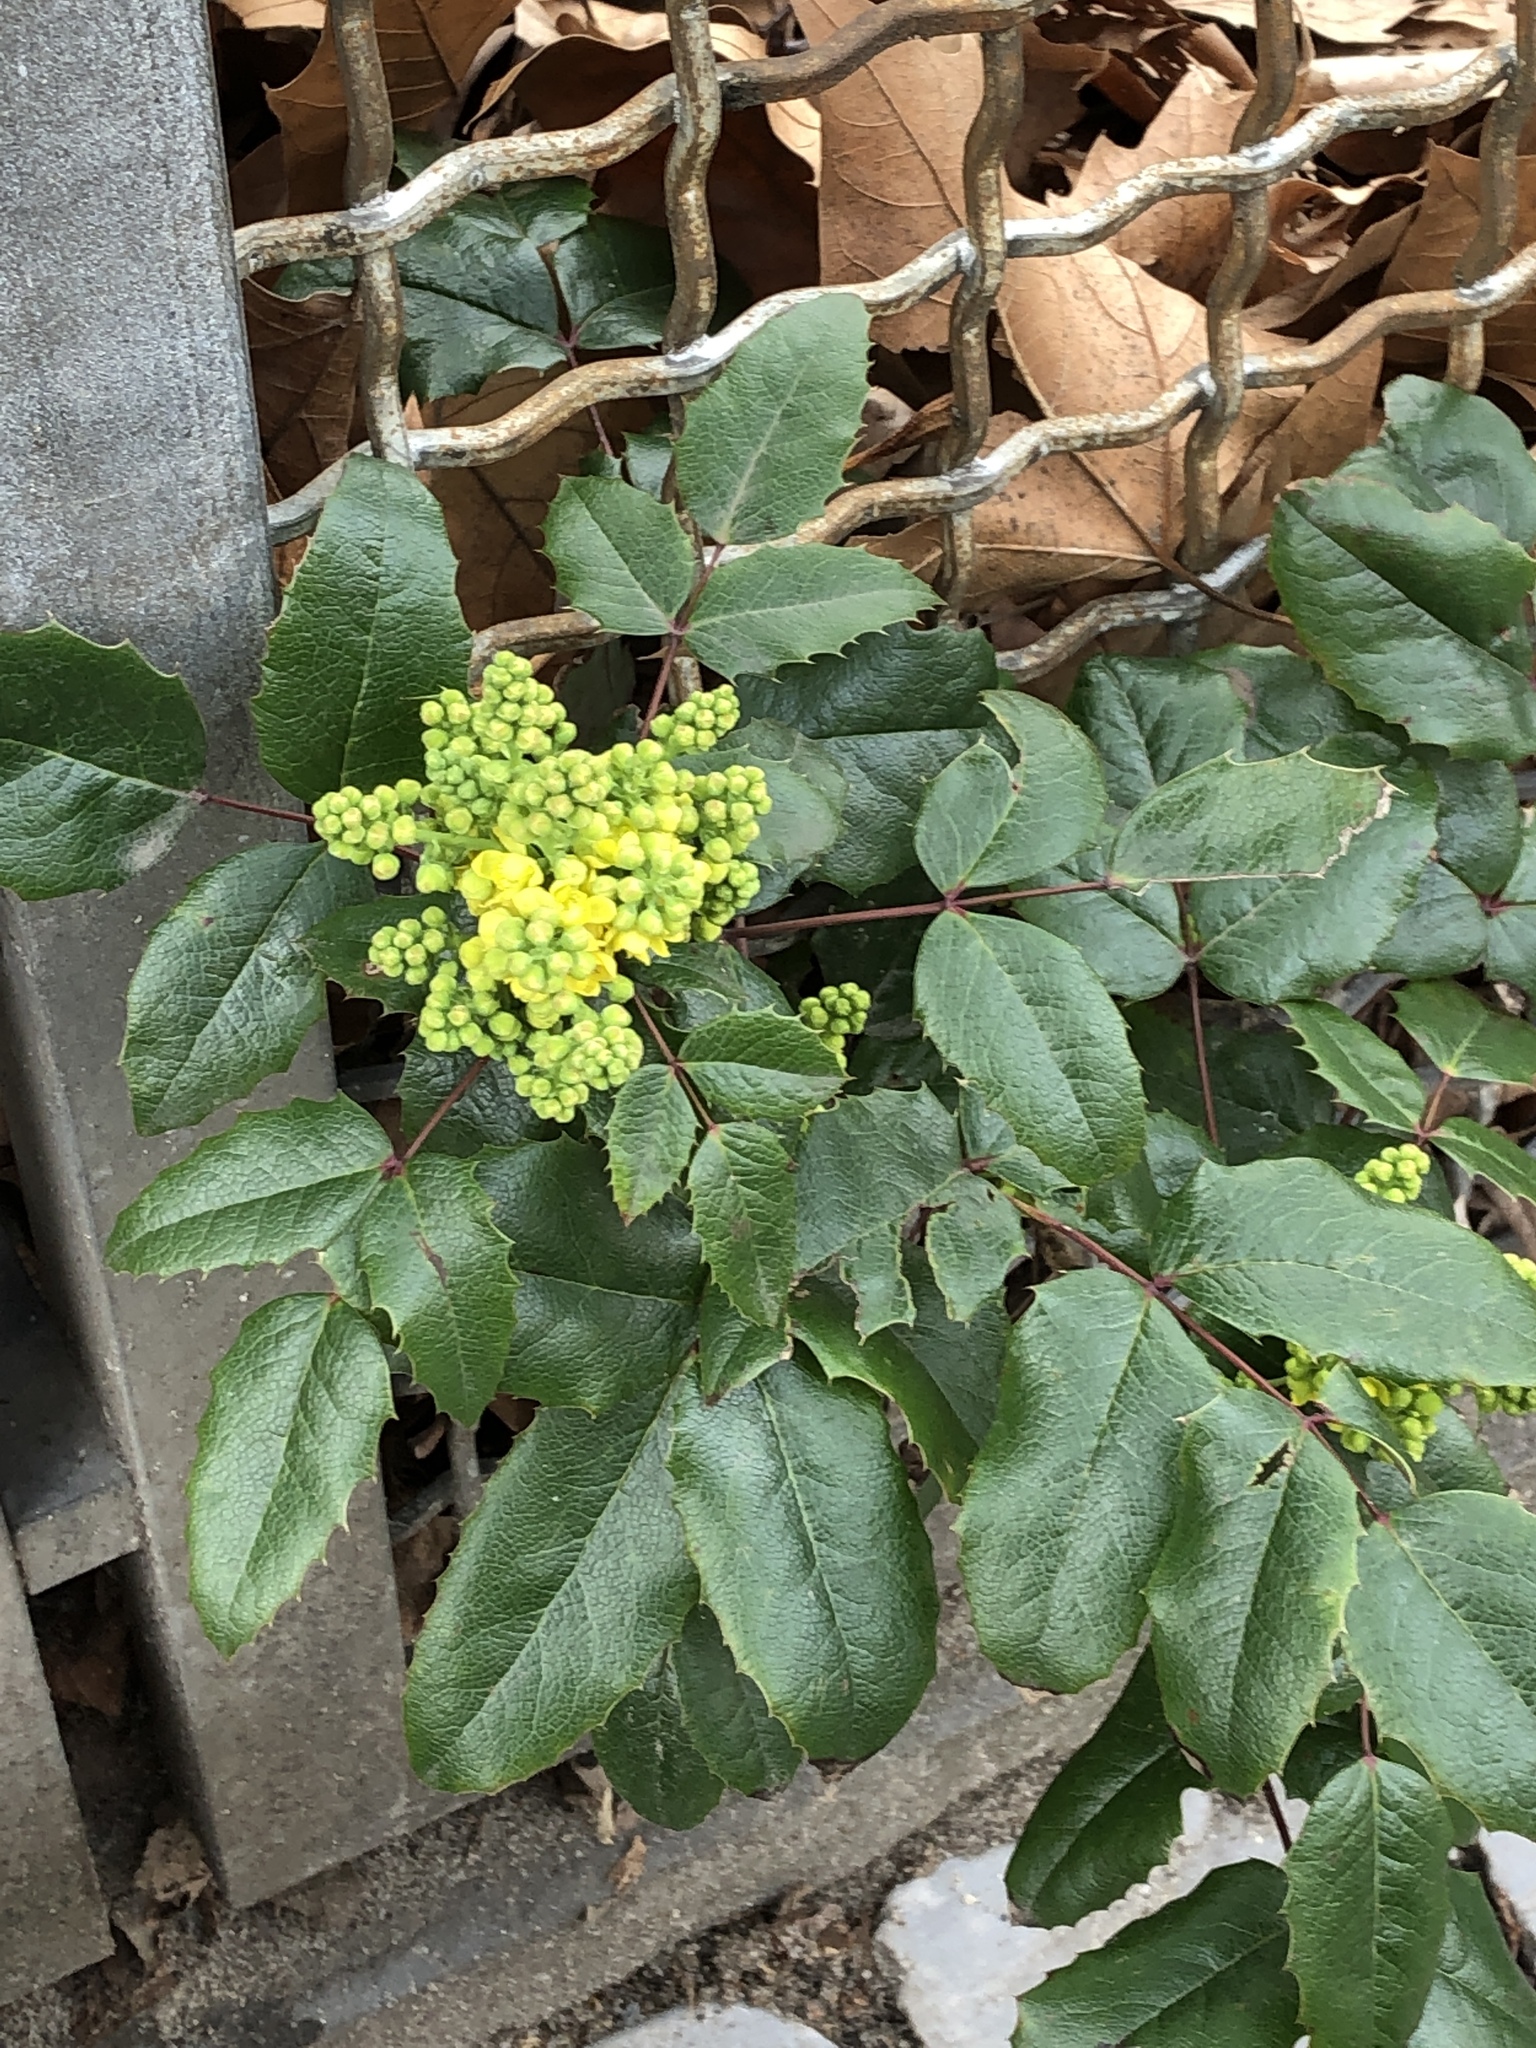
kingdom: Plantae
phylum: Tracheophyta
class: Magnoliopsida
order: Ranunculales
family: Berberidaceae
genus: Mahonia
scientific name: Mahonia aquifolium
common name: Oregon-grape
